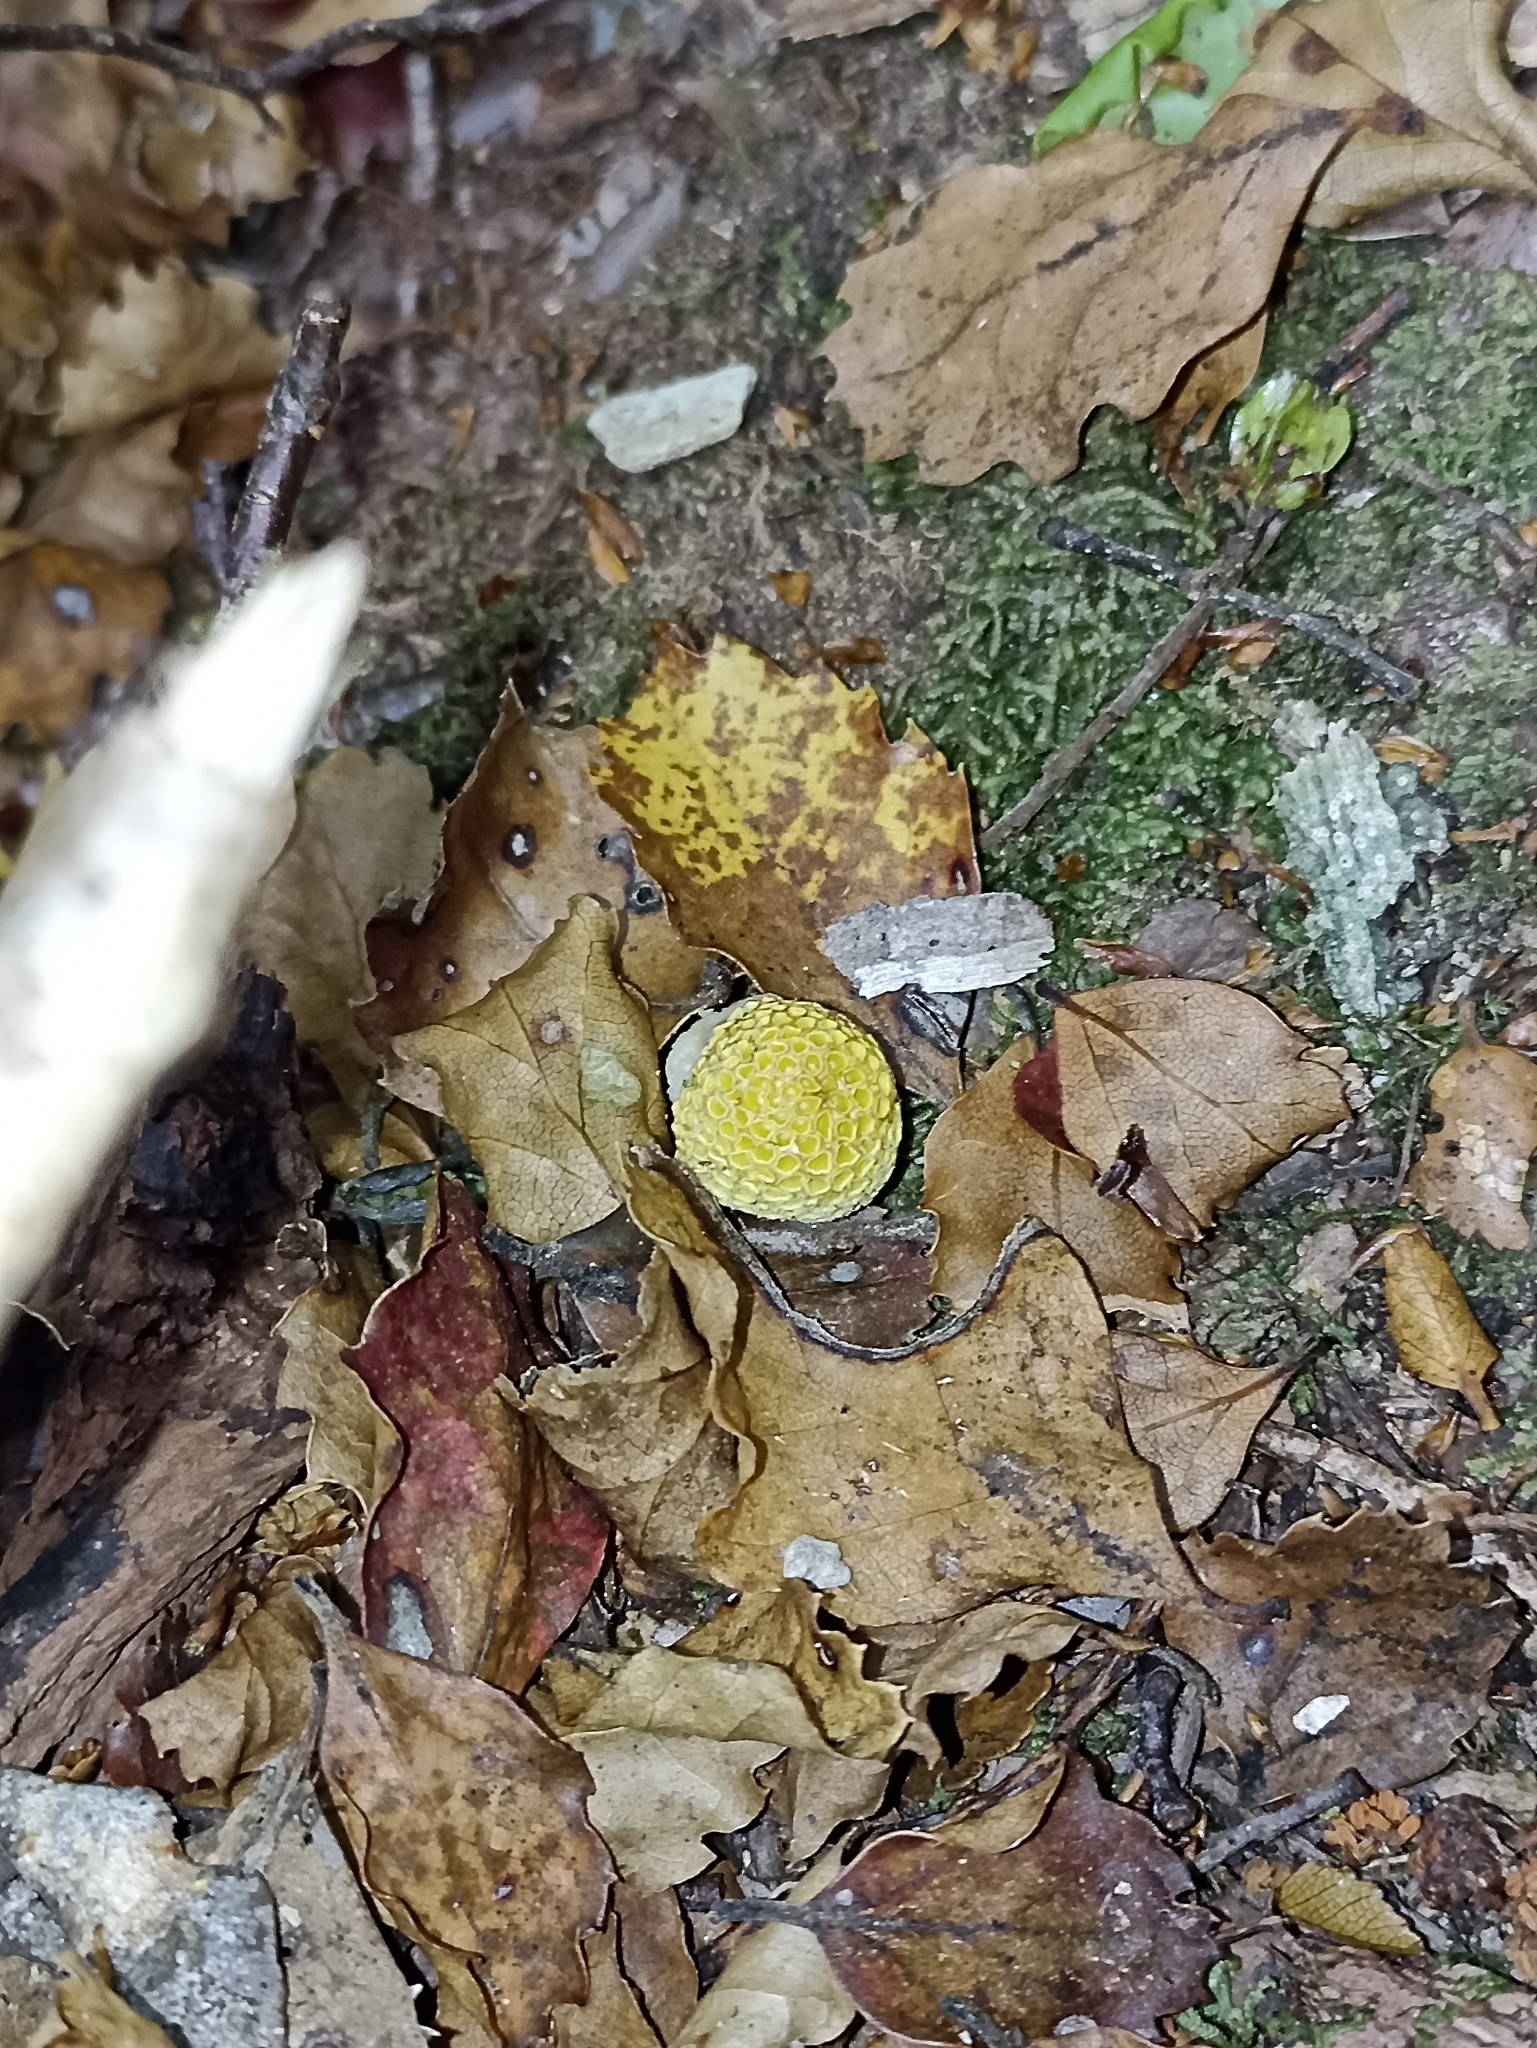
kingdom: Fungi
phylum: Ascomycota
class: Leotiomycetes
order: Cyttariales
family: Cyttariaceae
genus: Cyttaria
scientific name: Cyttaria gunnii
